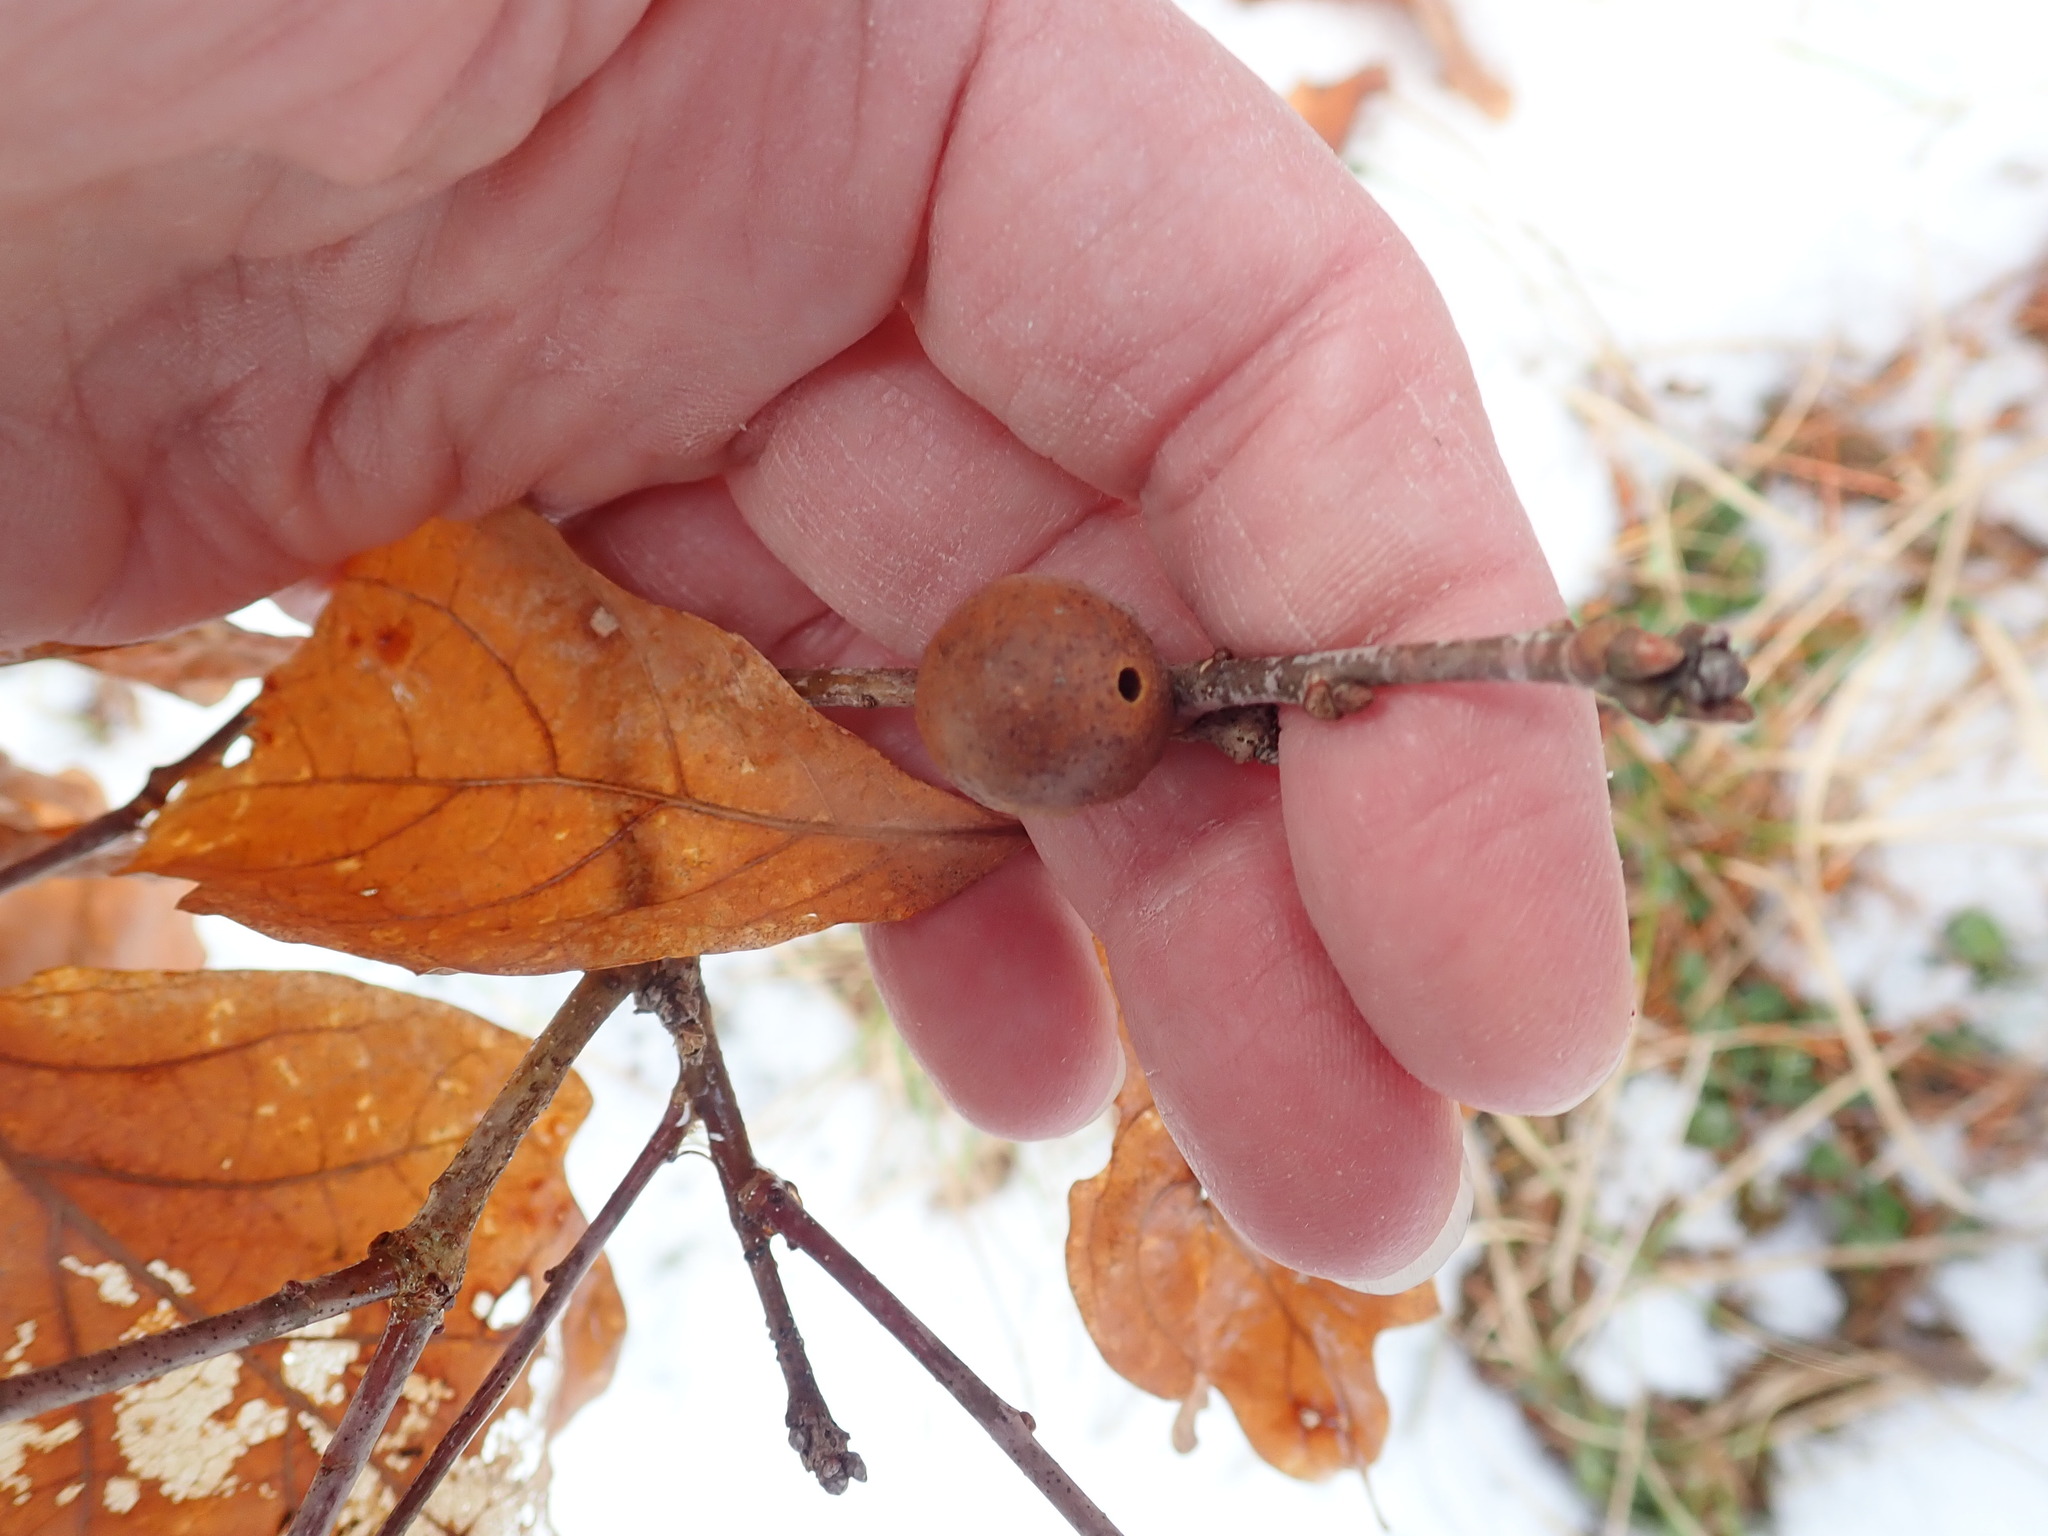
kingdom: Animalia
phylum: Arthropoda
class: Insecta
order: Hymenoptera
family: Cynipidae
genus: Disholcaspis
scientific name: Disholcaspis quercusglobulus
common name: Round bullet gall wasp
